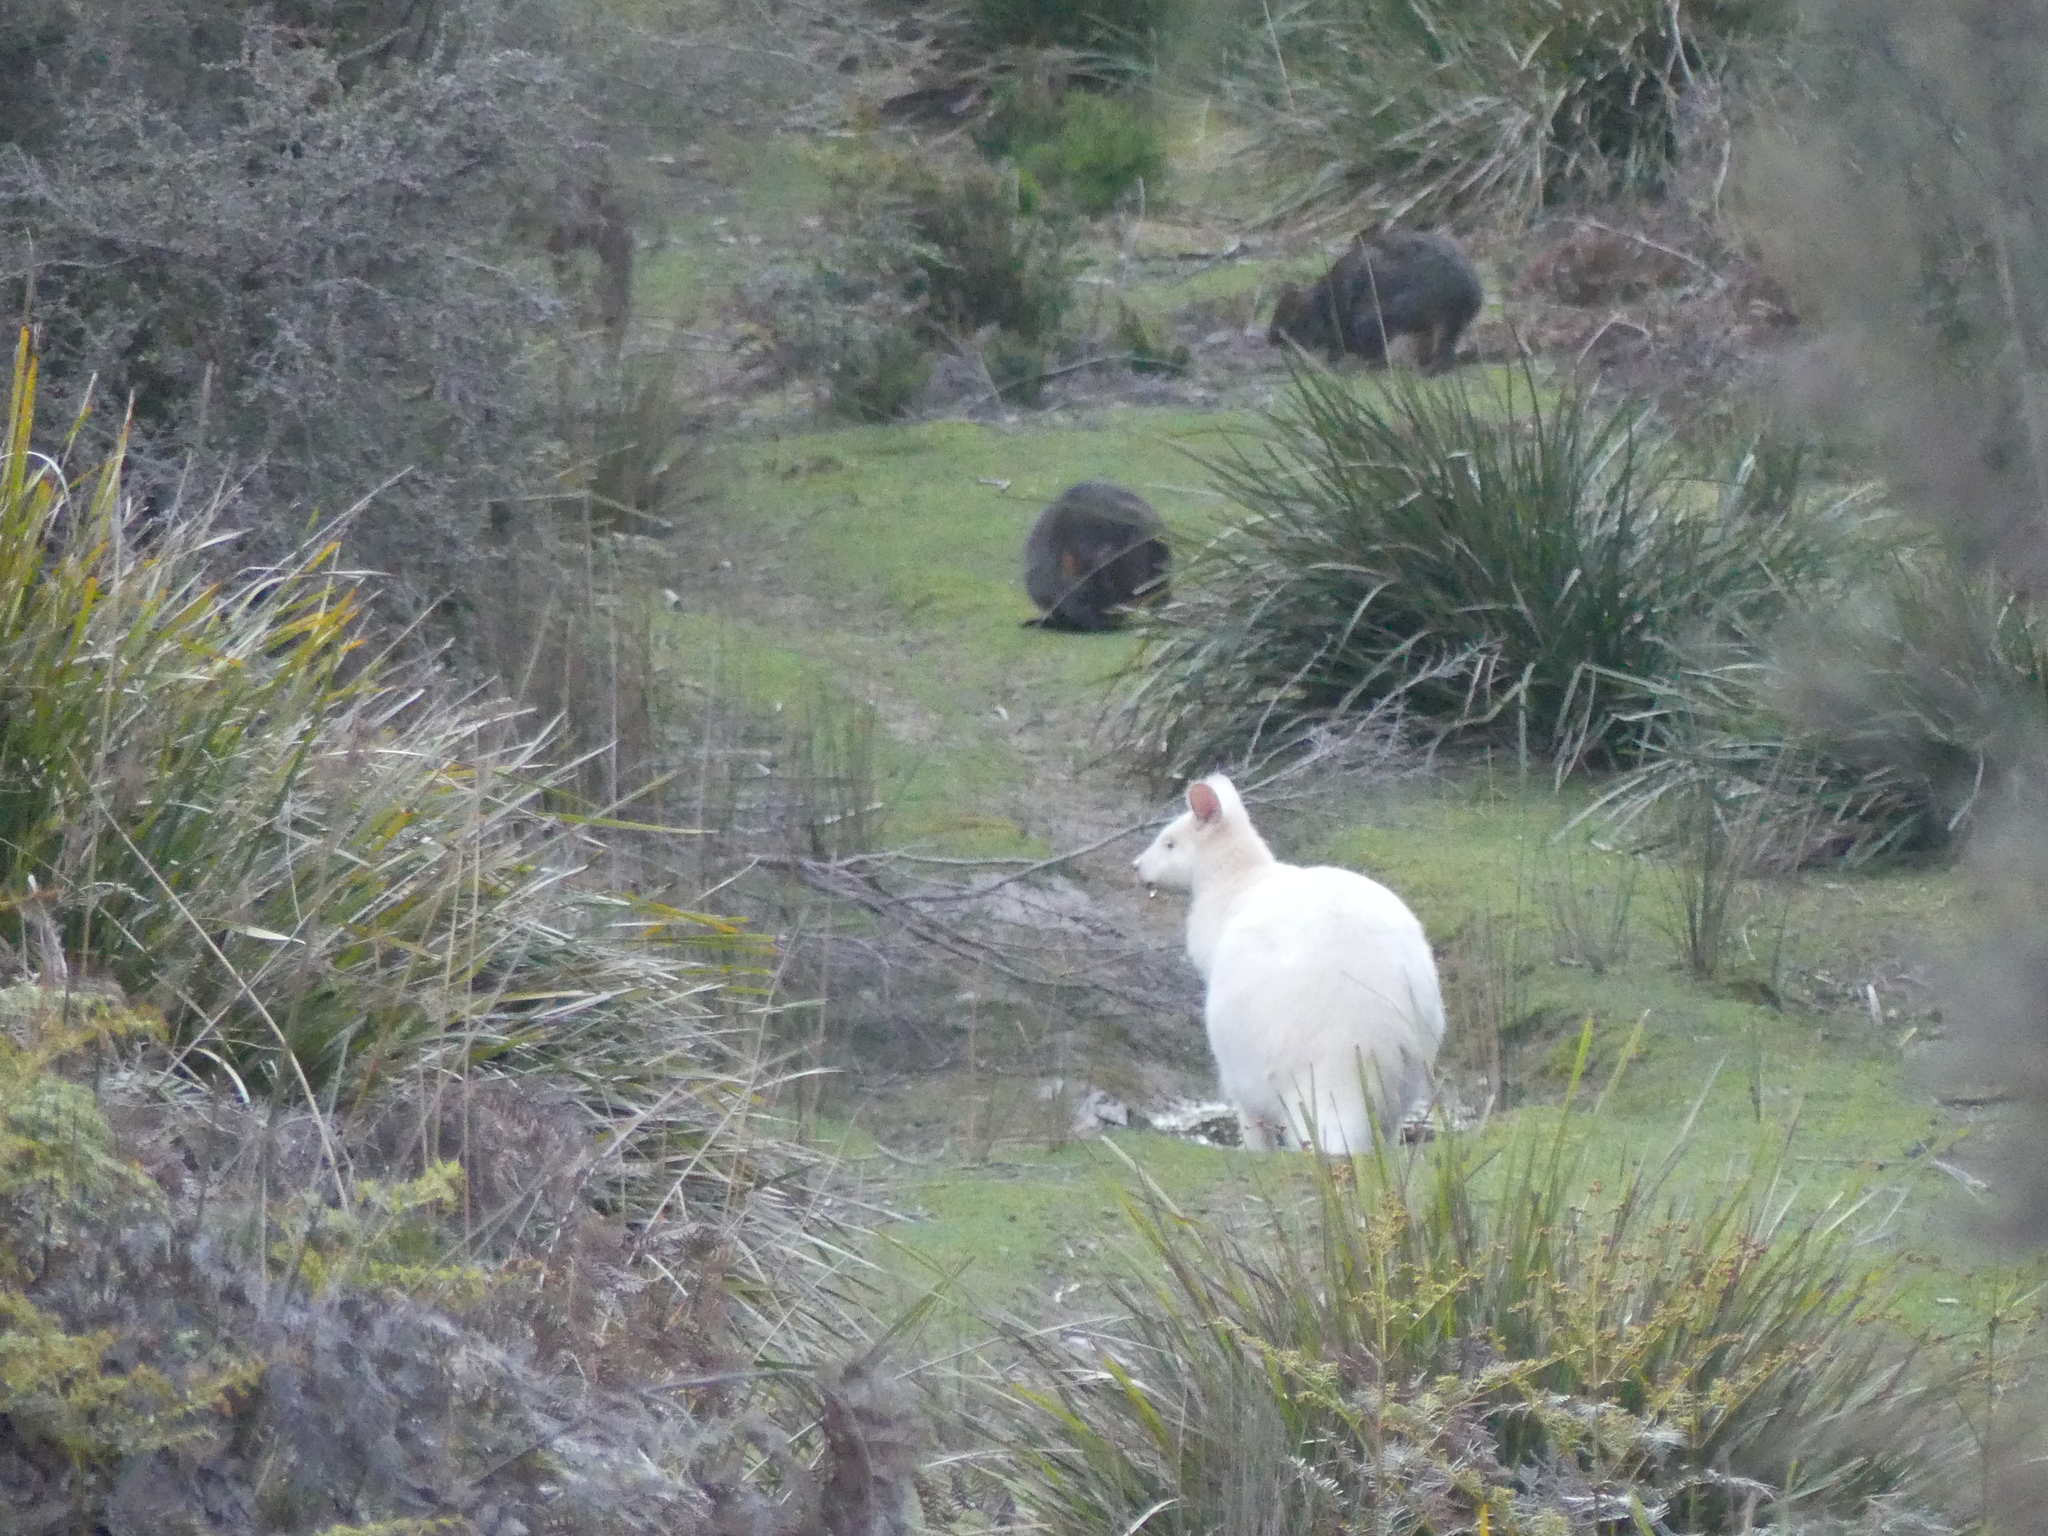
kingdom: Animalia
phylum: Chordata
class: Mammalia
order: Diprotodontia
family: Macropodidae
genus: Notamacropus
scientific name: Notamacropus rufogriseus
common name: Red-necked wallaby
